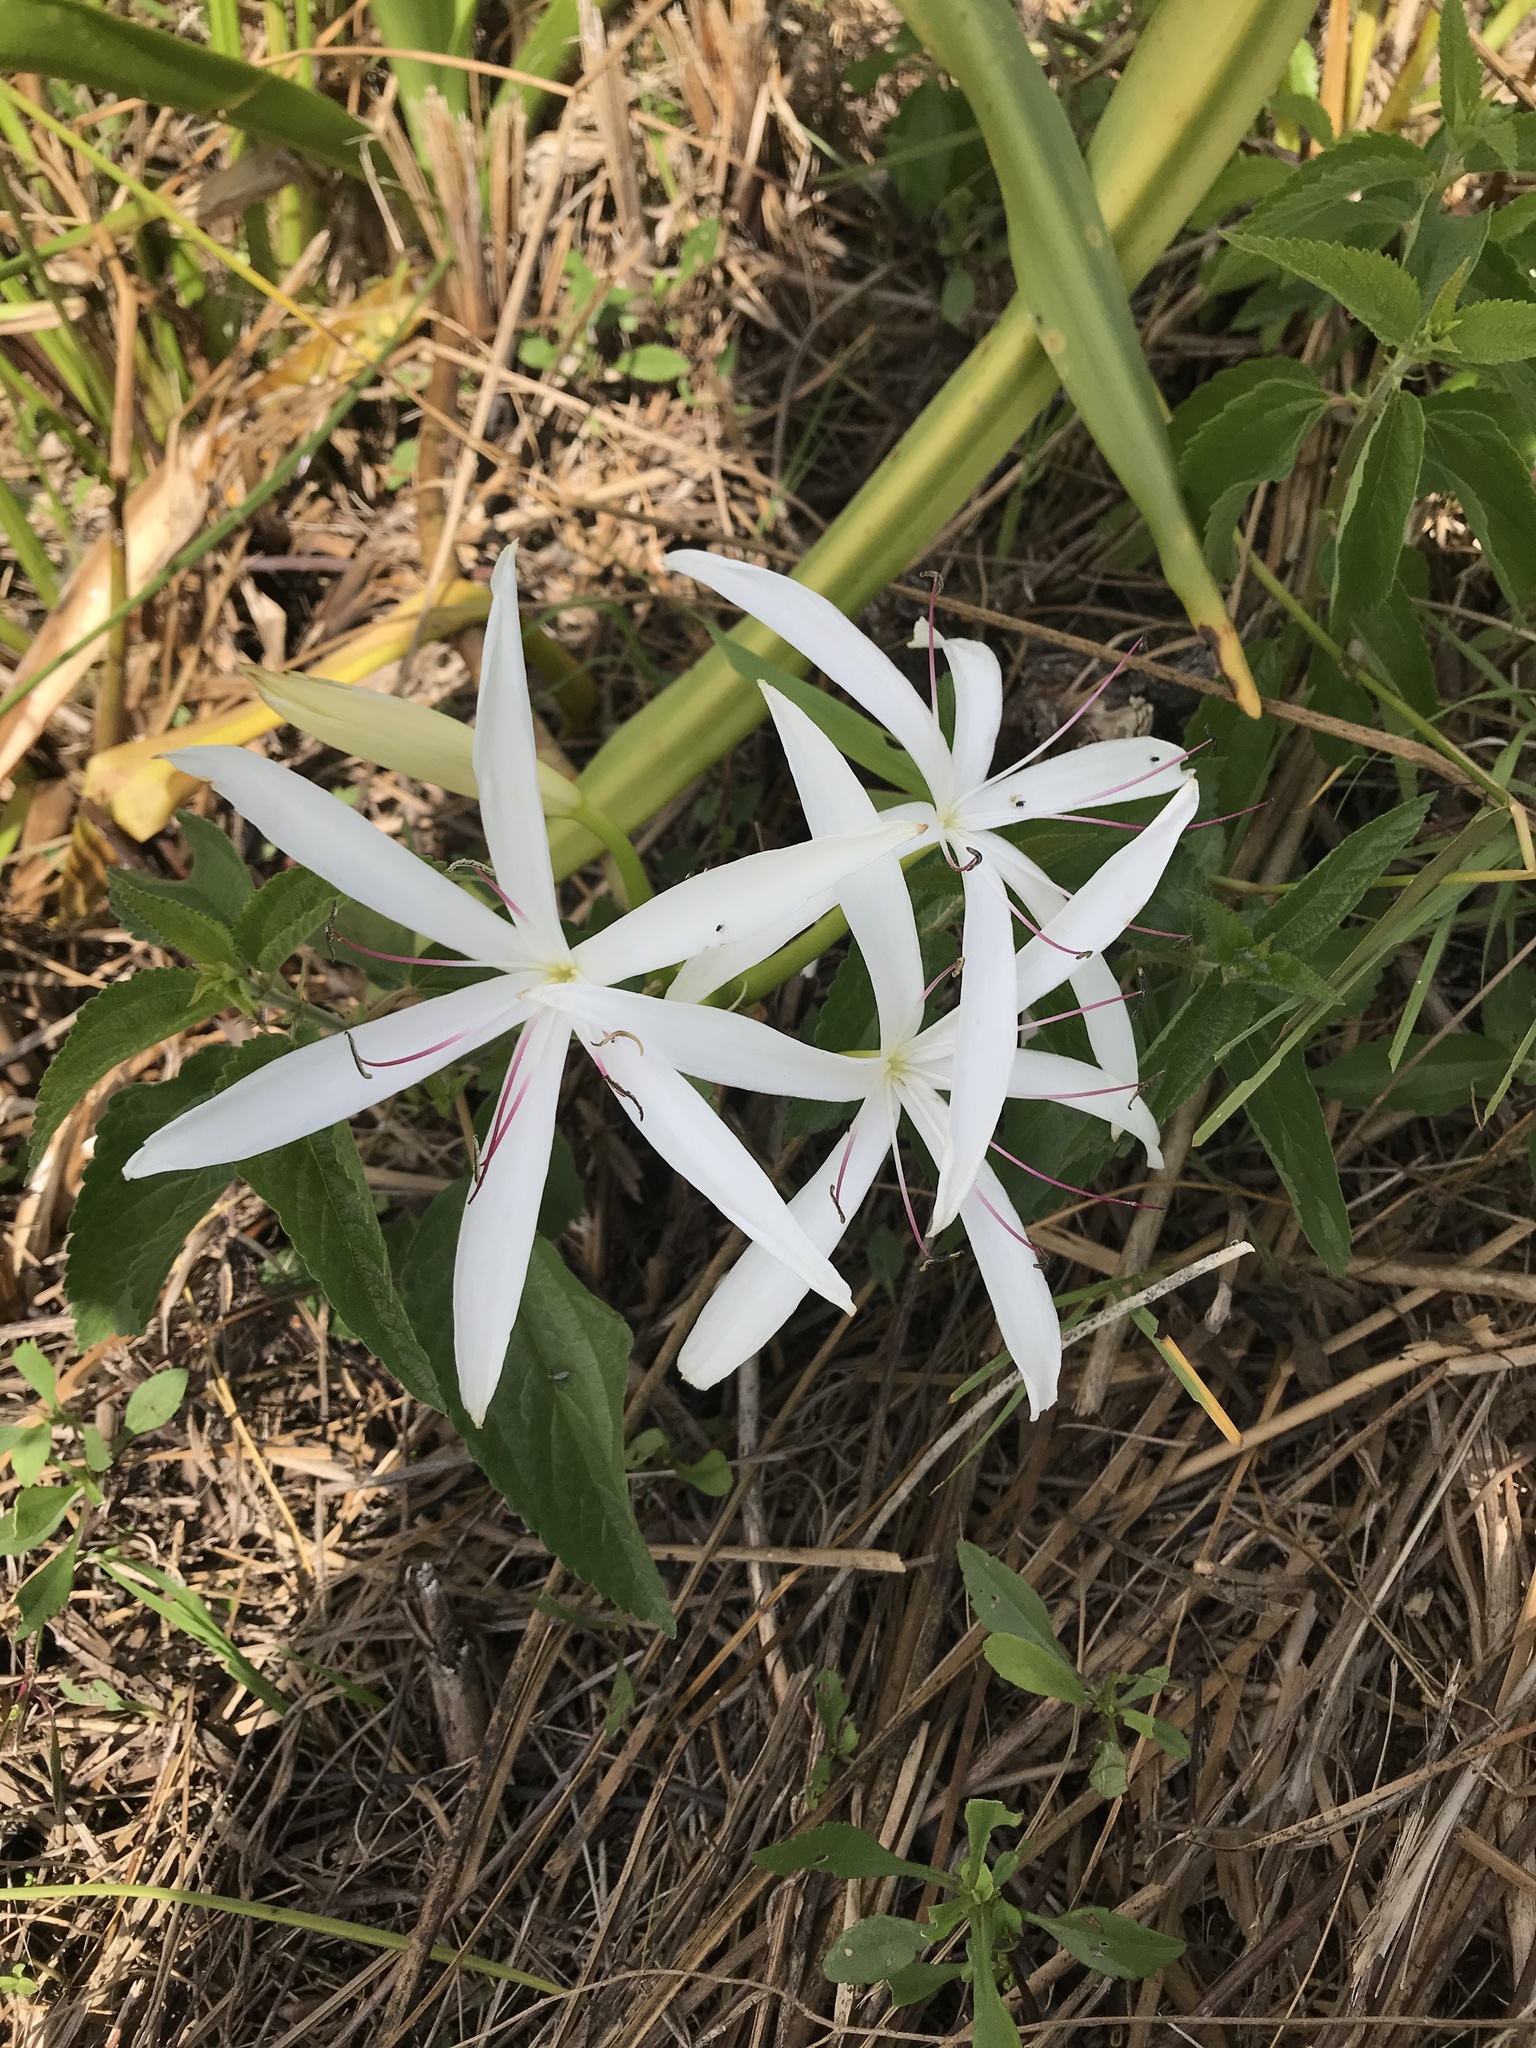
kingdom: Plantae
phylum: Tracheophyta
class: Liliopsida
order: Asparagales
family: Amaryllidaceae
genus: Crinum
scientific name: Crinum americanum
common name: Florida swamp-lily
